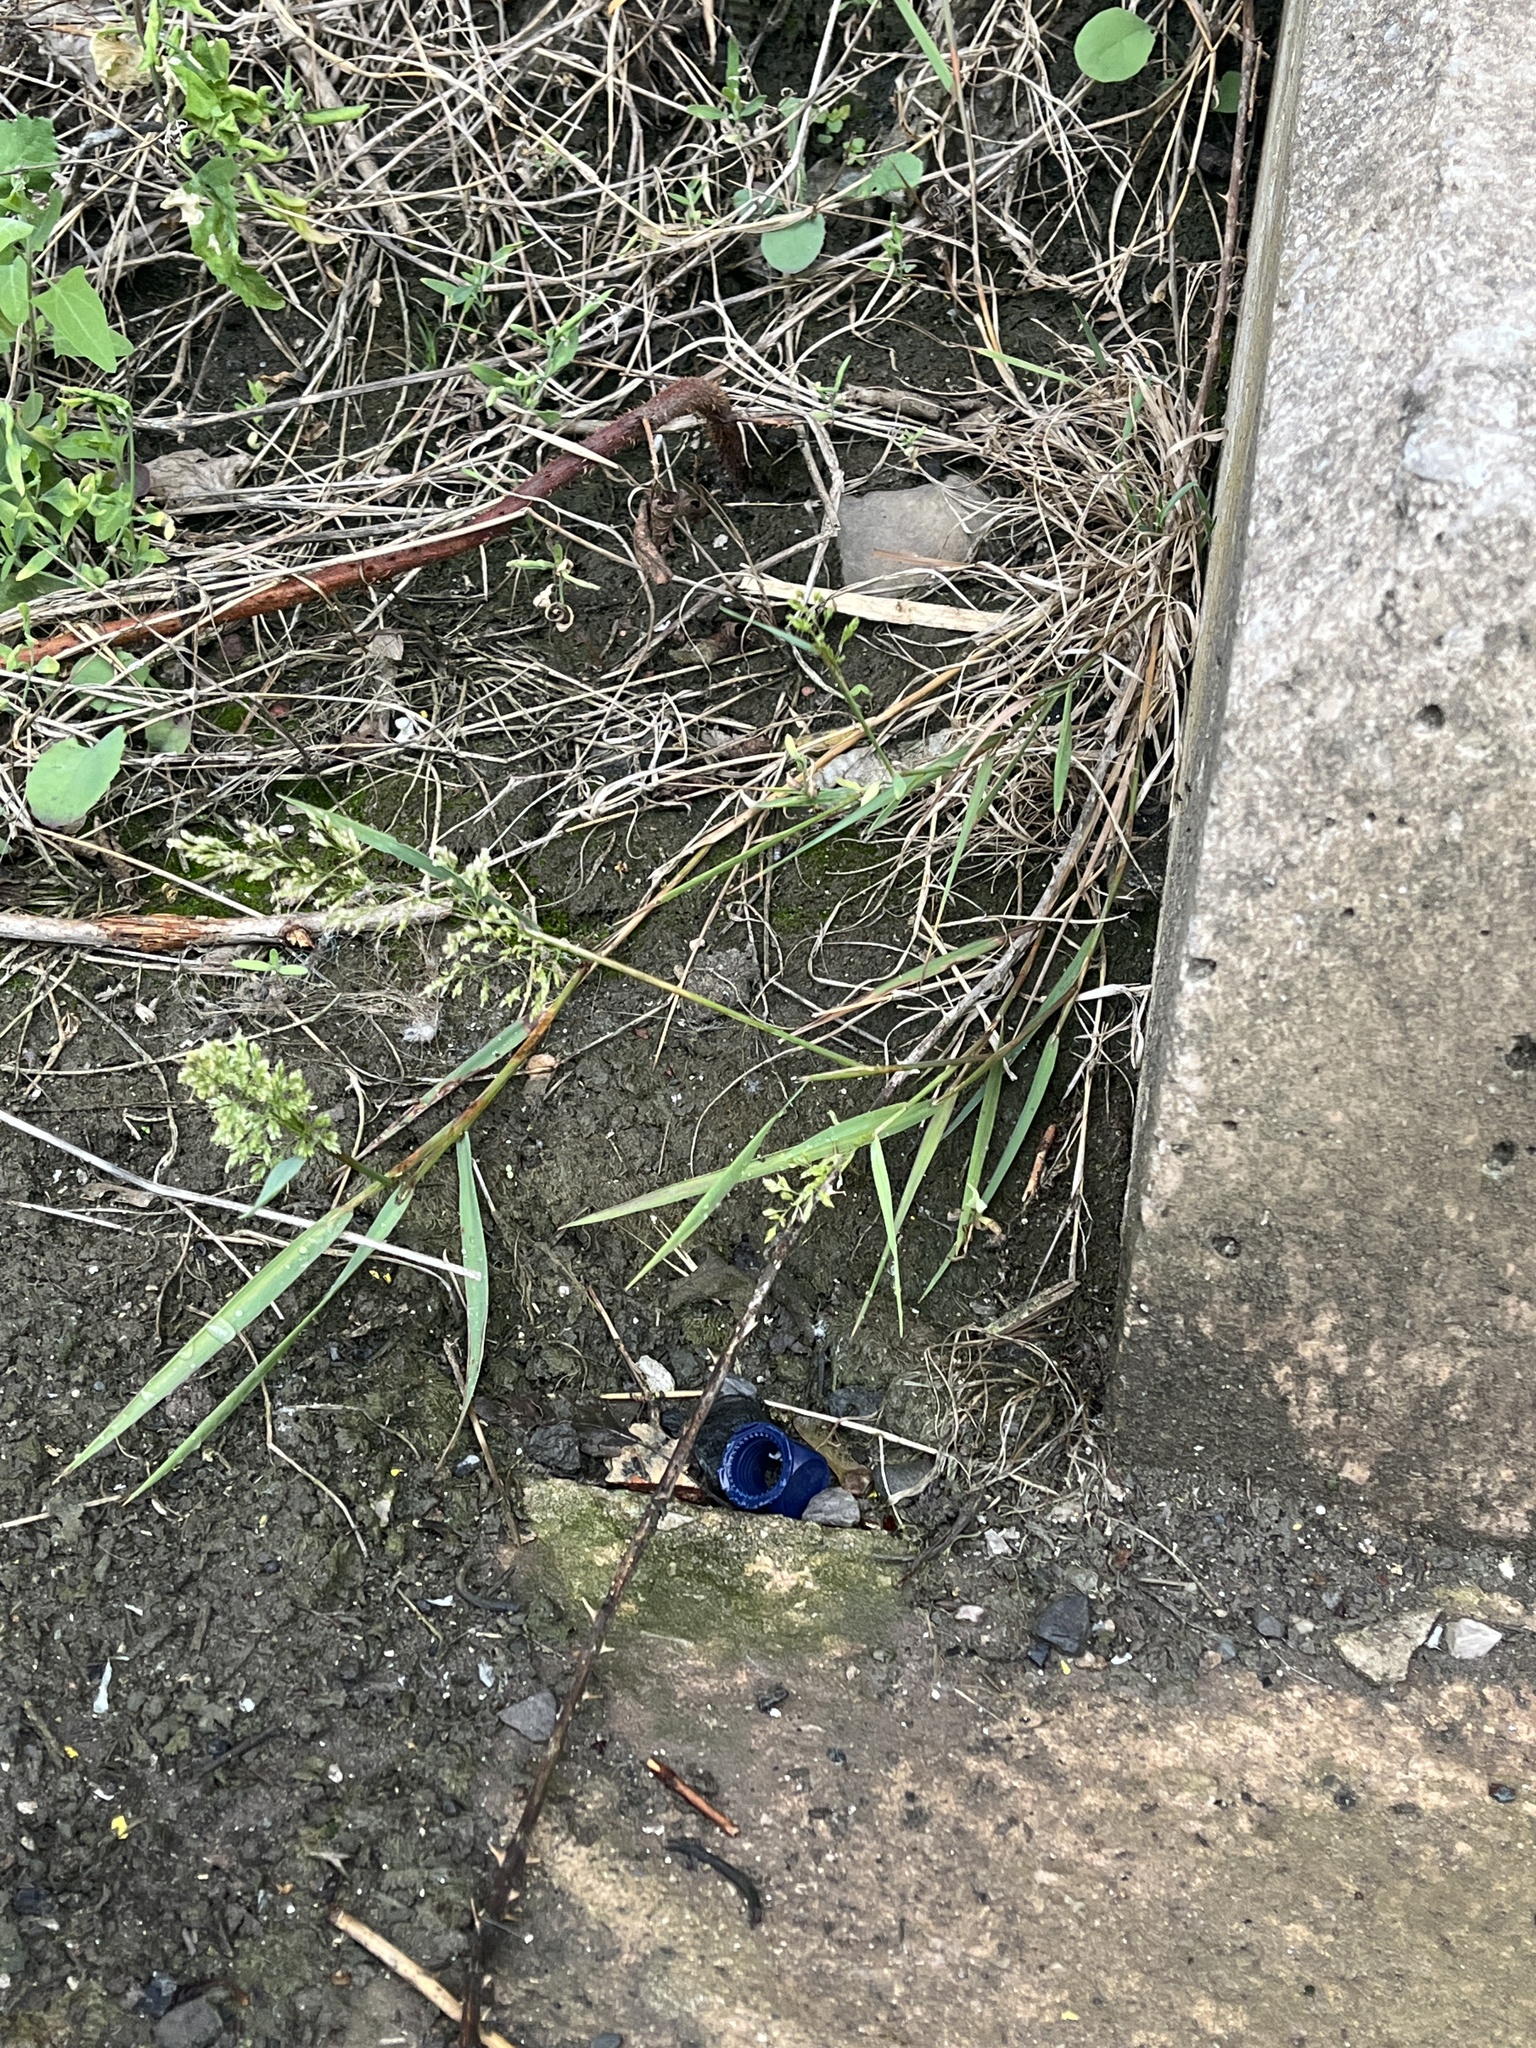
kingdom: Plantae
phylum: Tracheophyta
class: Liliopsida
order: Poales
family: Poaceae
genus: Agrostis
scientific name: Agrostis stolonifera
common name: Creeping bentgrass
